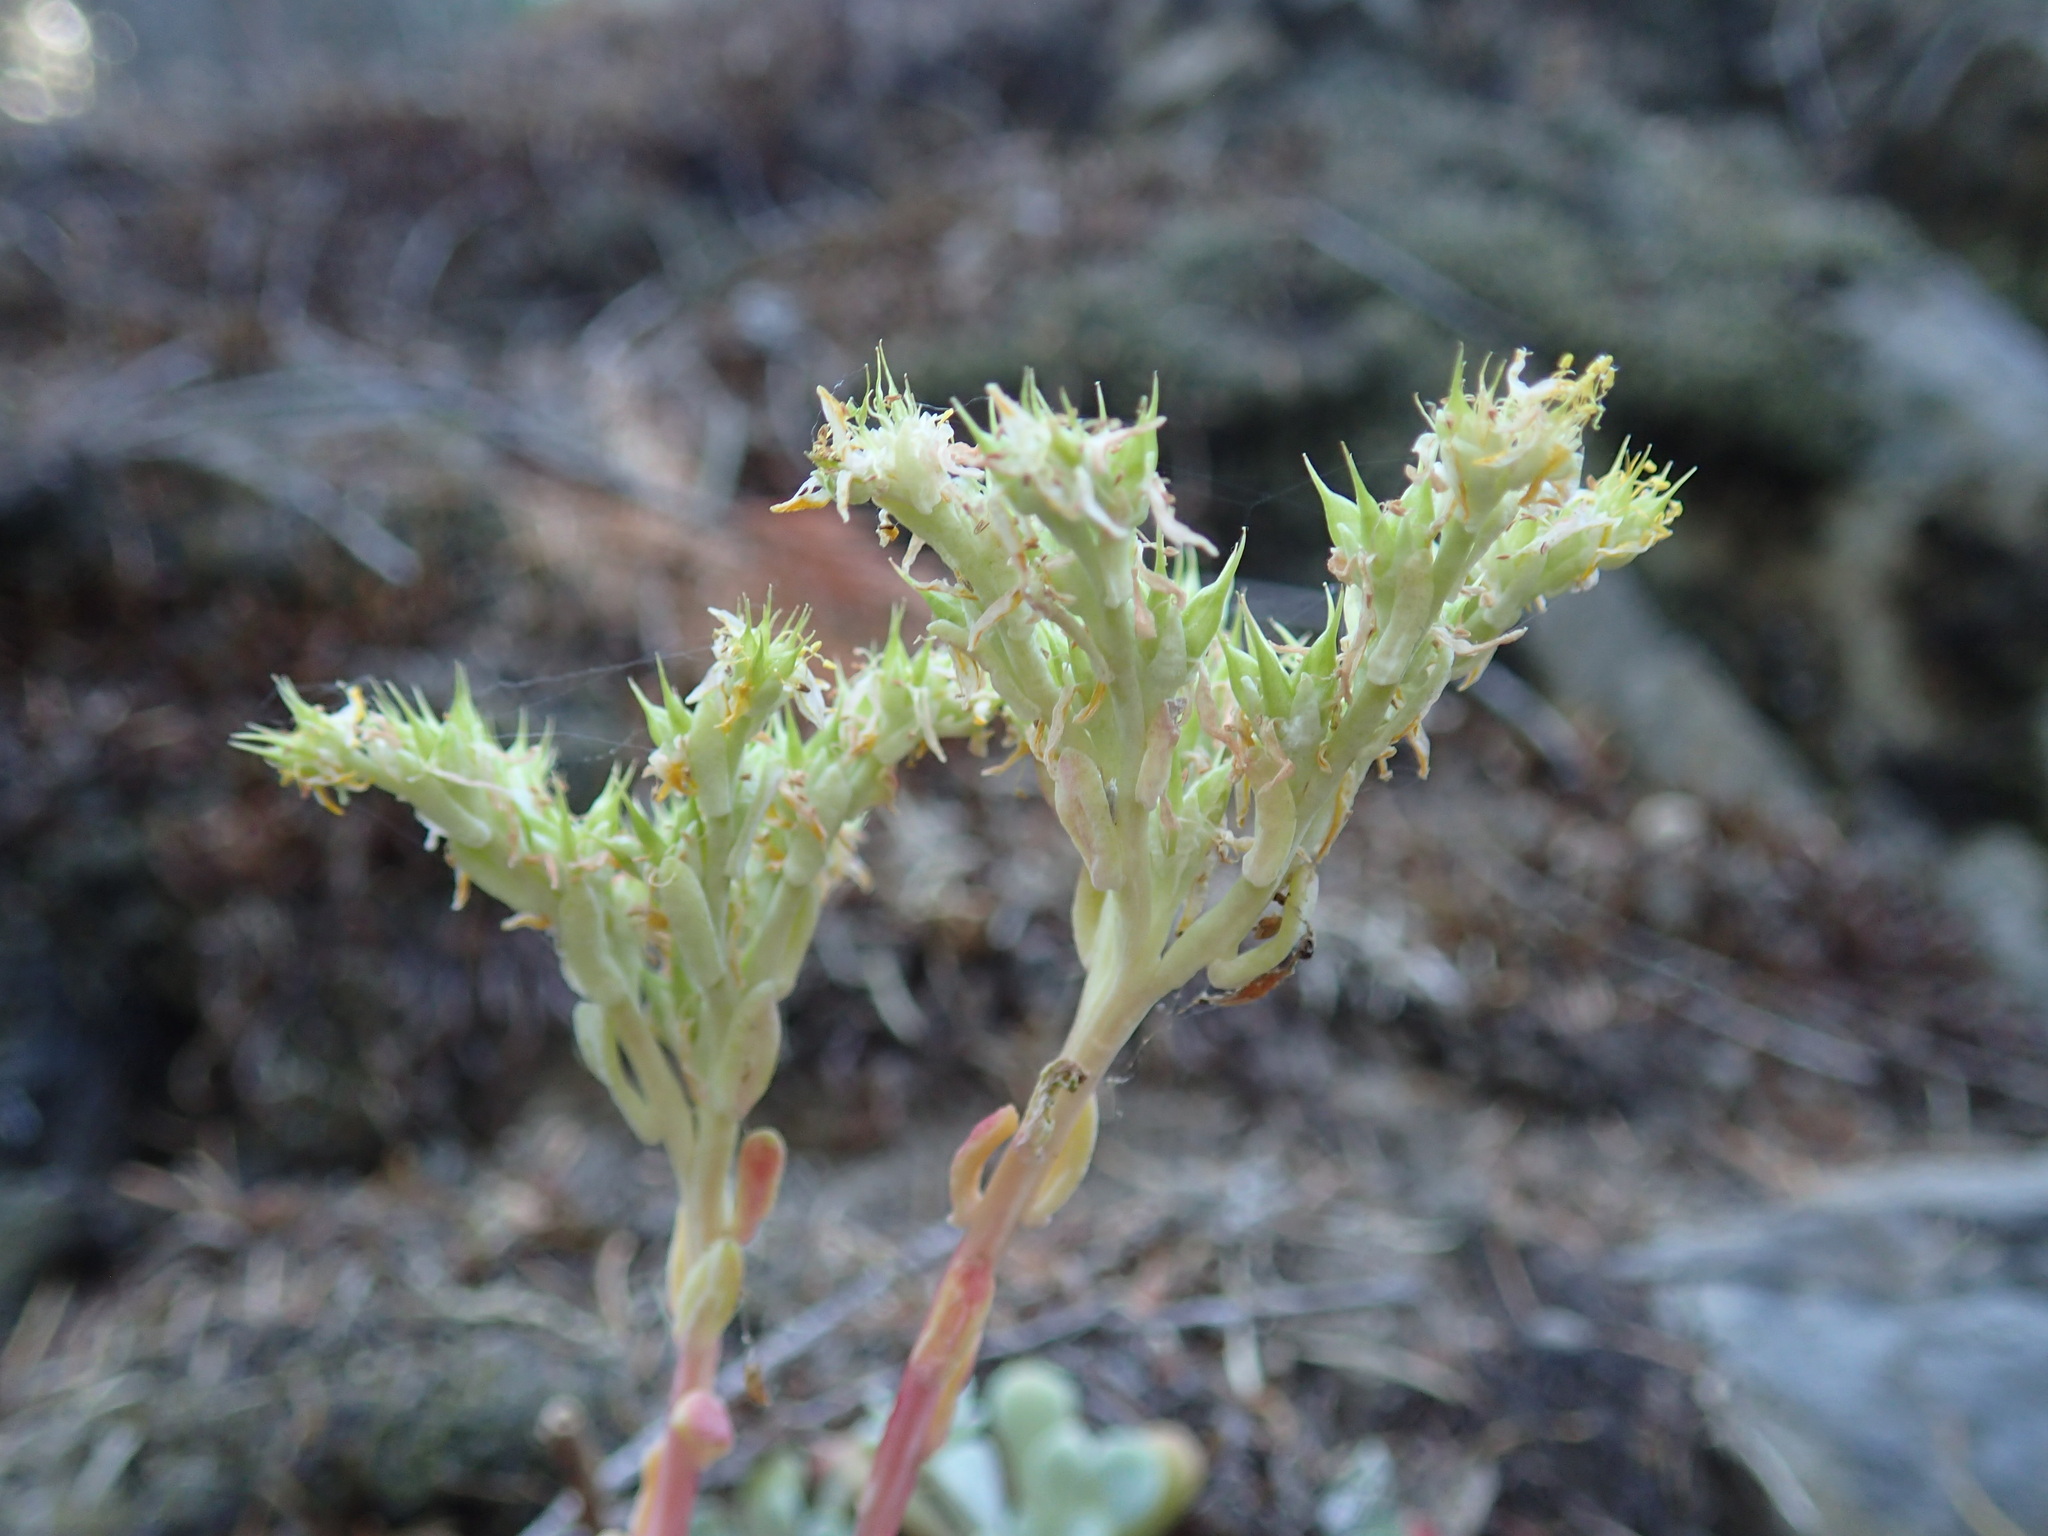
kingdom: Plantae
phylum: Tracheophyta
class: Magnoliopsida
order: Saxifragales
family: Crassulaceae
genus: Sedum
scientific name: Sedum spathulifolium
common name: Colorado stonecrop
